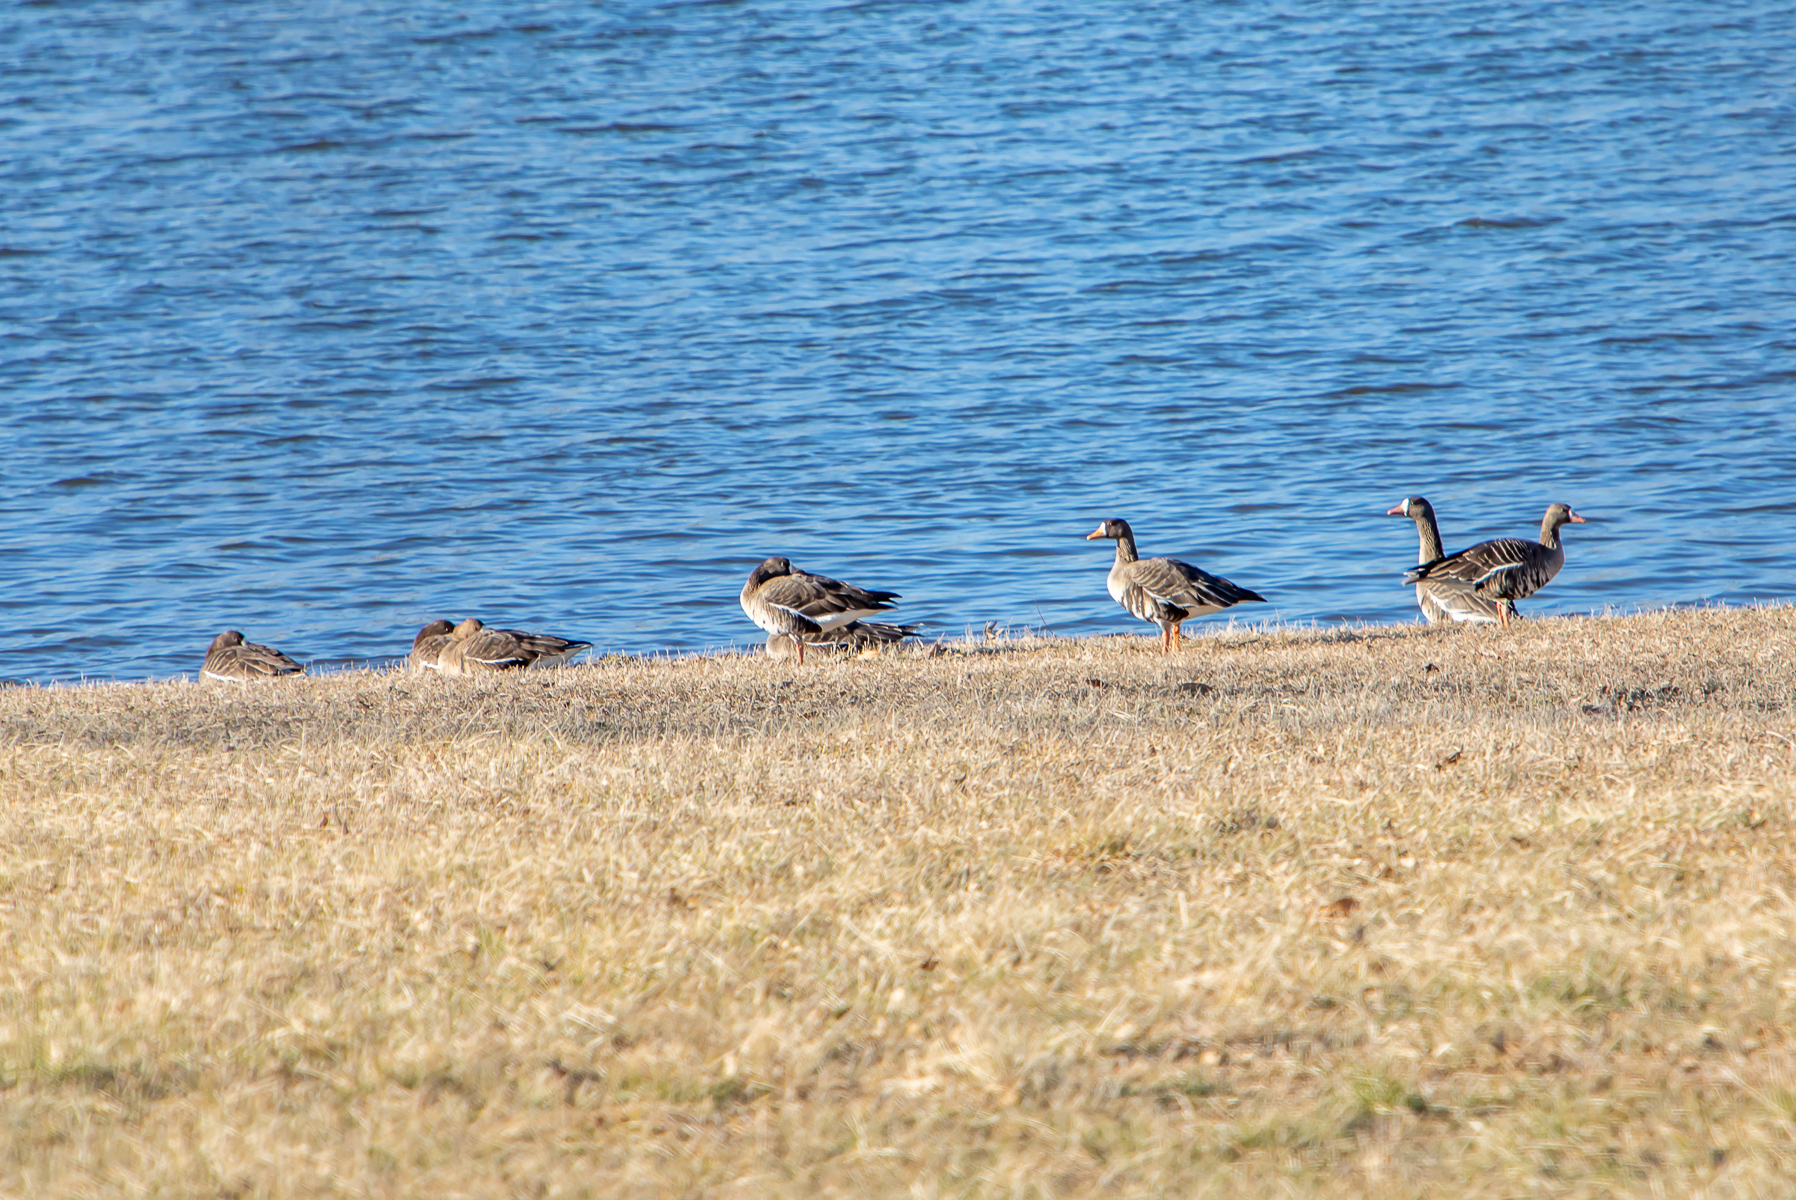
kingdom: Animalia
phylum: Chordata
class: Aves
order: Anseriformes
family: Anatidae
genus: Anser
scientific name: Anser albifrons
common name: Greater white-fronted goose
